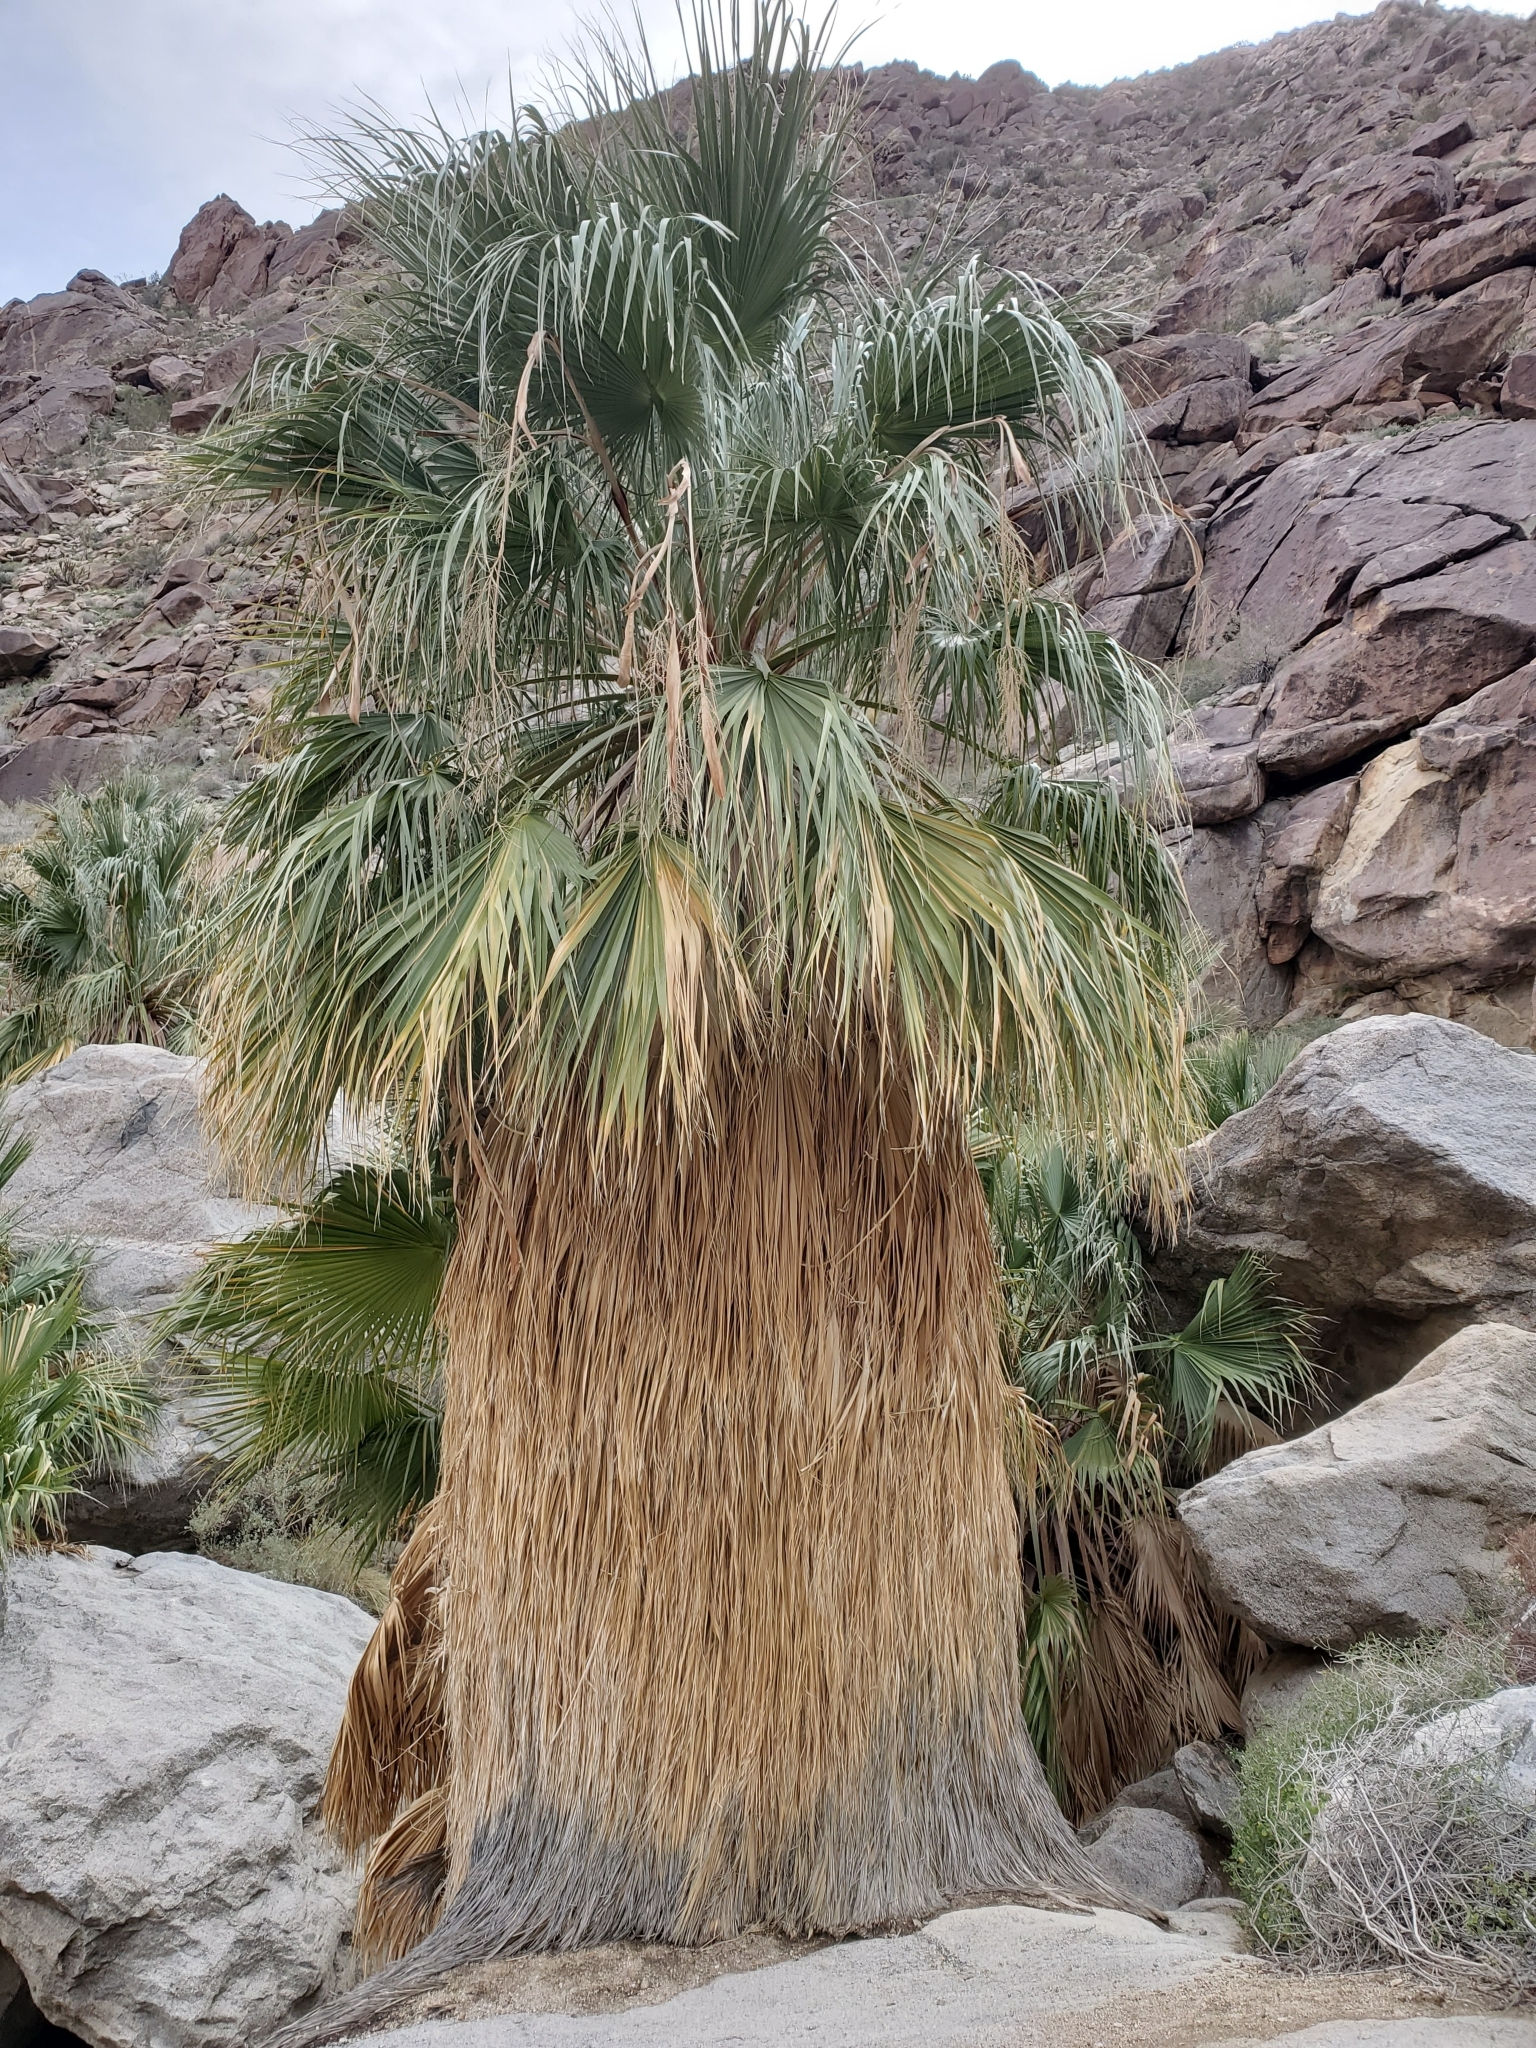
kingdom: Plantae
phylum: Tracheophyta
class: Liliopsida
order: Arecales
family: Arecaceae
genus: Washingtonia
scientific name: Washingtonia filifera
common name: California fan palm
